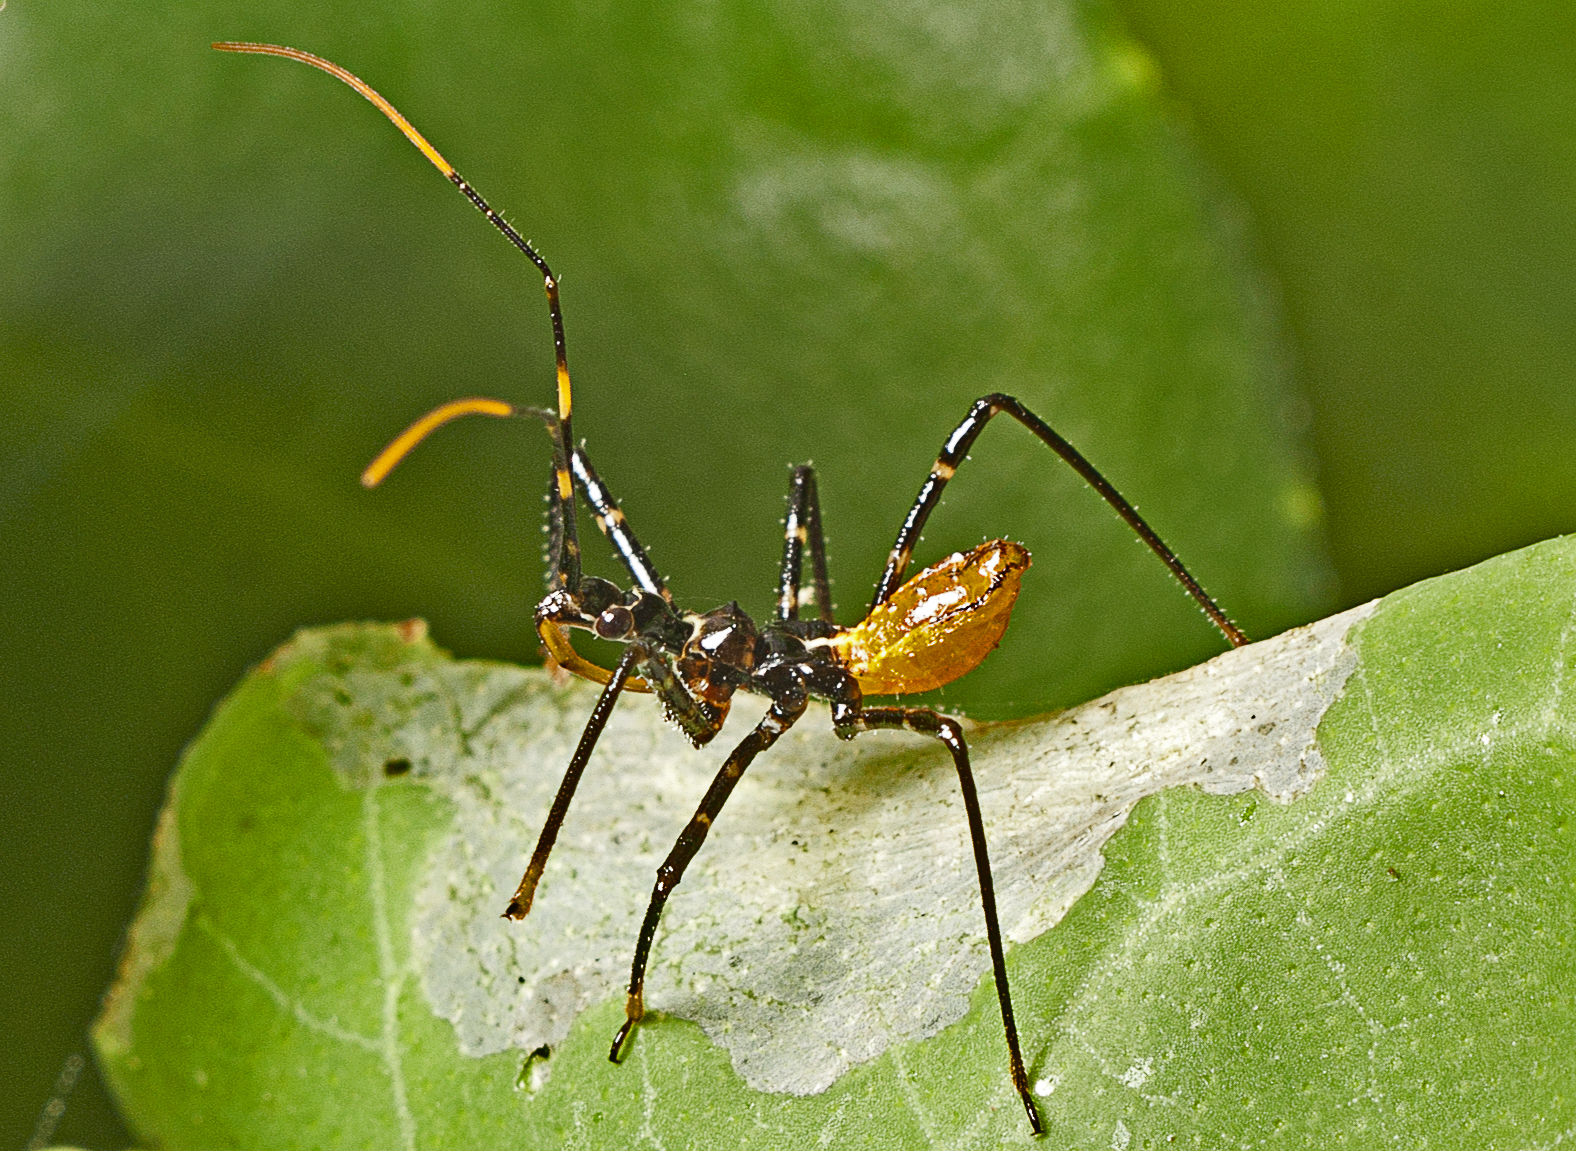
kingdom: Animalia
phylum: Arthropoda
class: Insecta
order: Hemiptera
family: Reduviidae
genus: Pristhesancus
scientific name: Pristhesancus plagipennis
